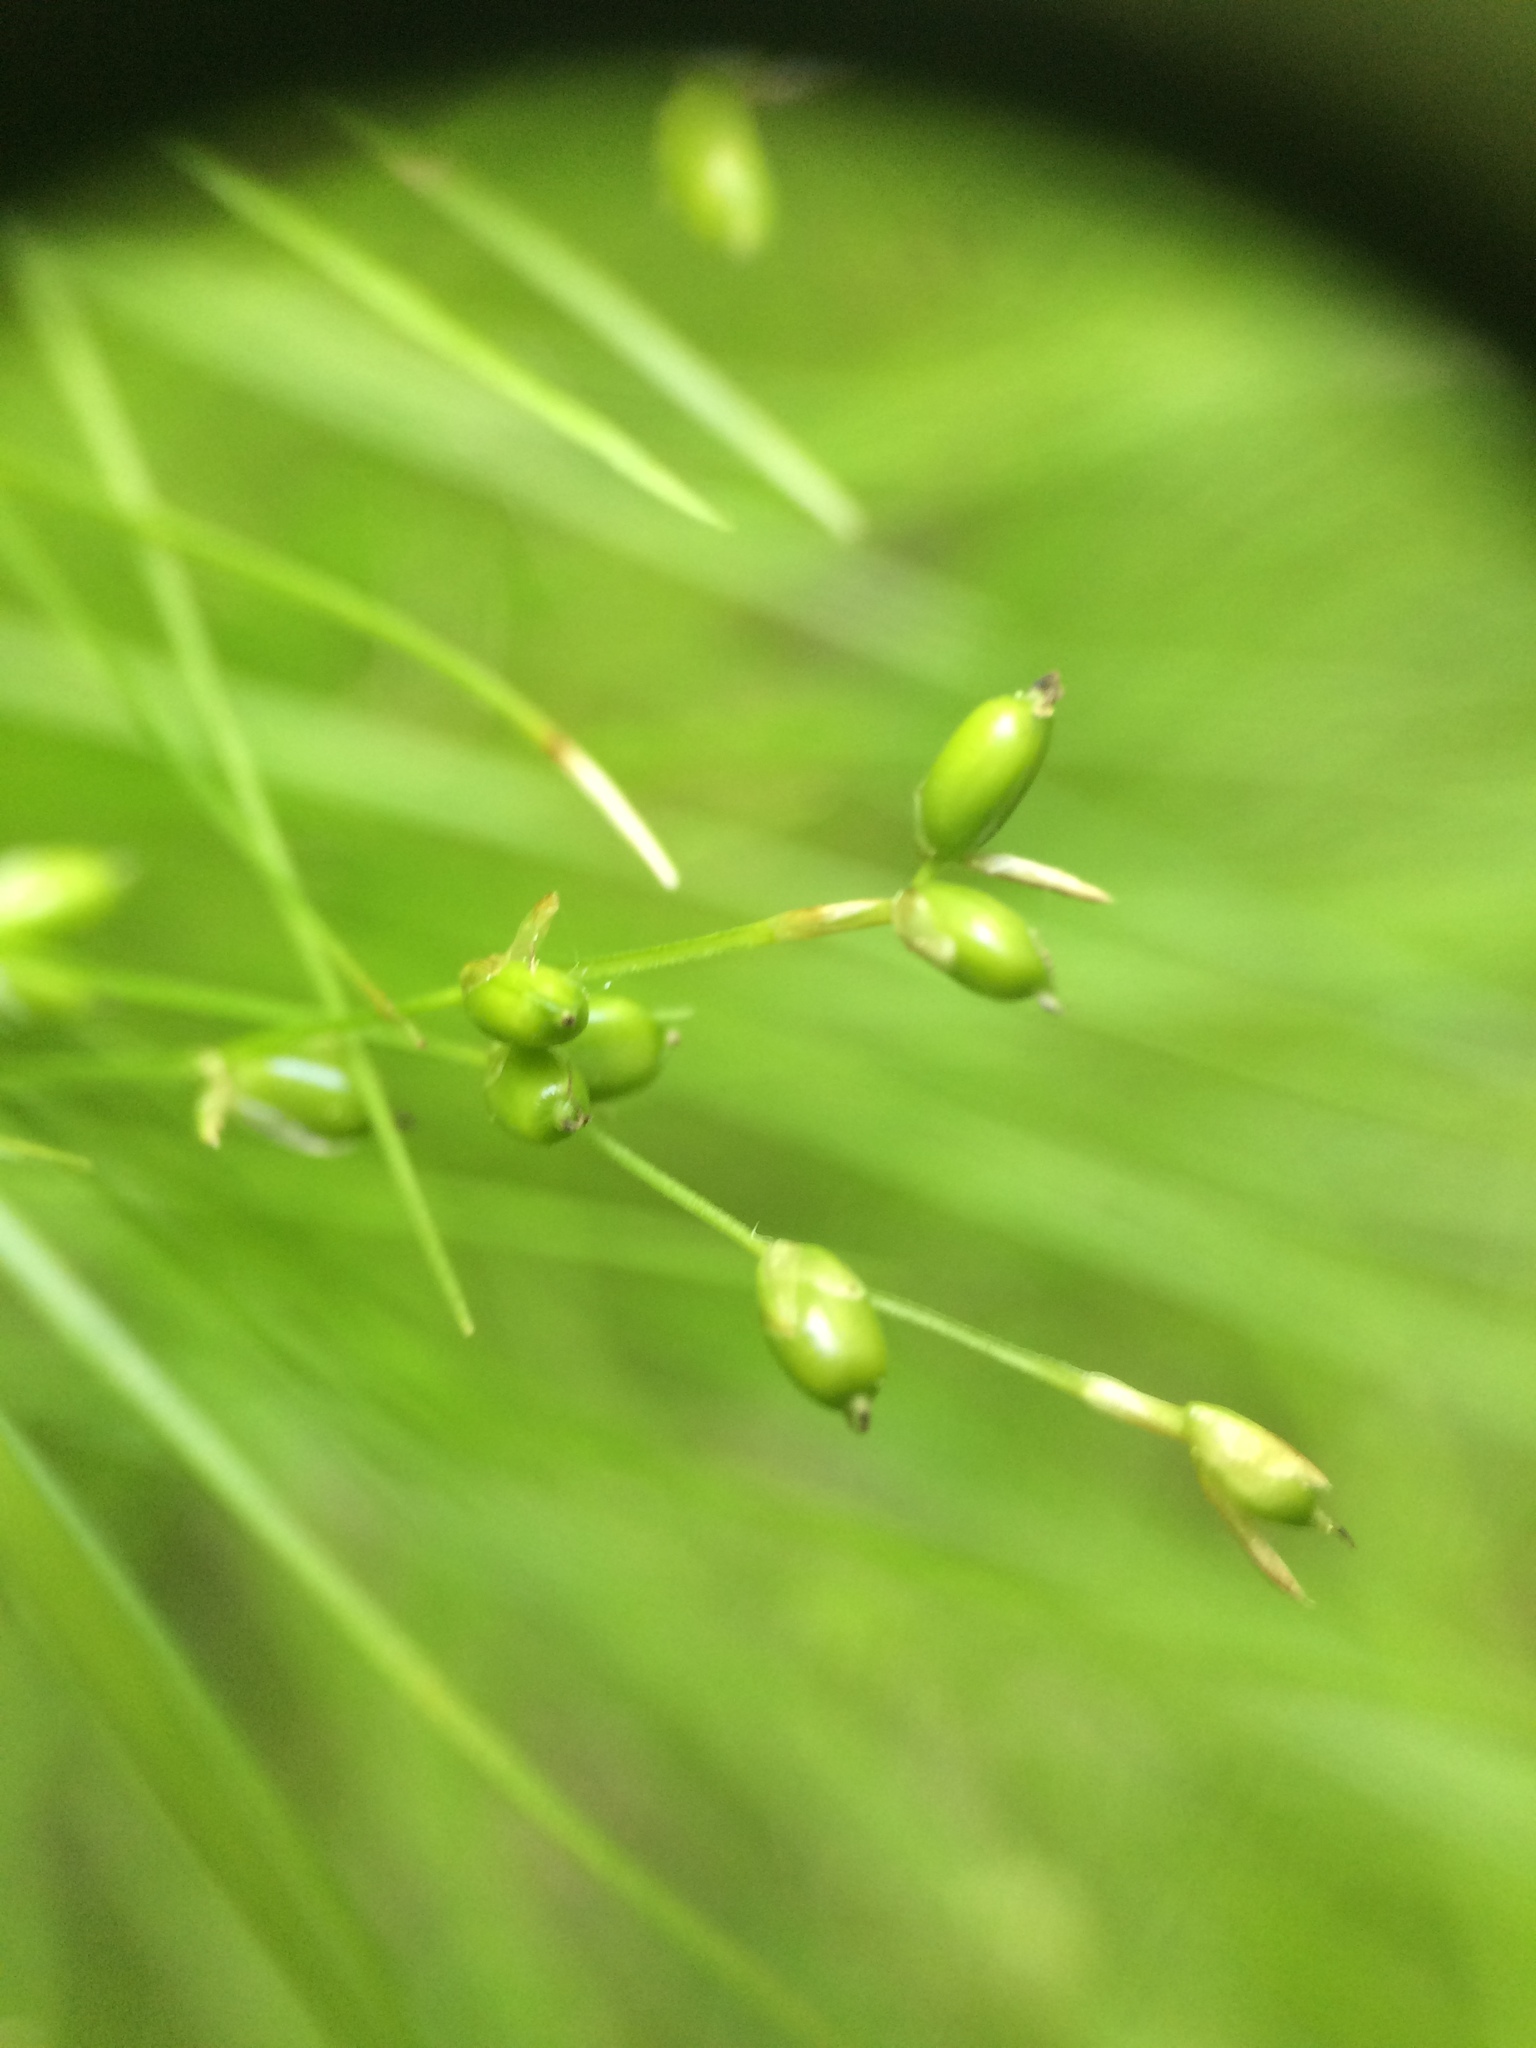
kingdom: Plantae
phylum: Tracheophyta
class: Liliopsida
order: Poales
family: Cyperaceae
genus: Carex
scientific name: Carex disperma
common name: Short-leaved sedge
